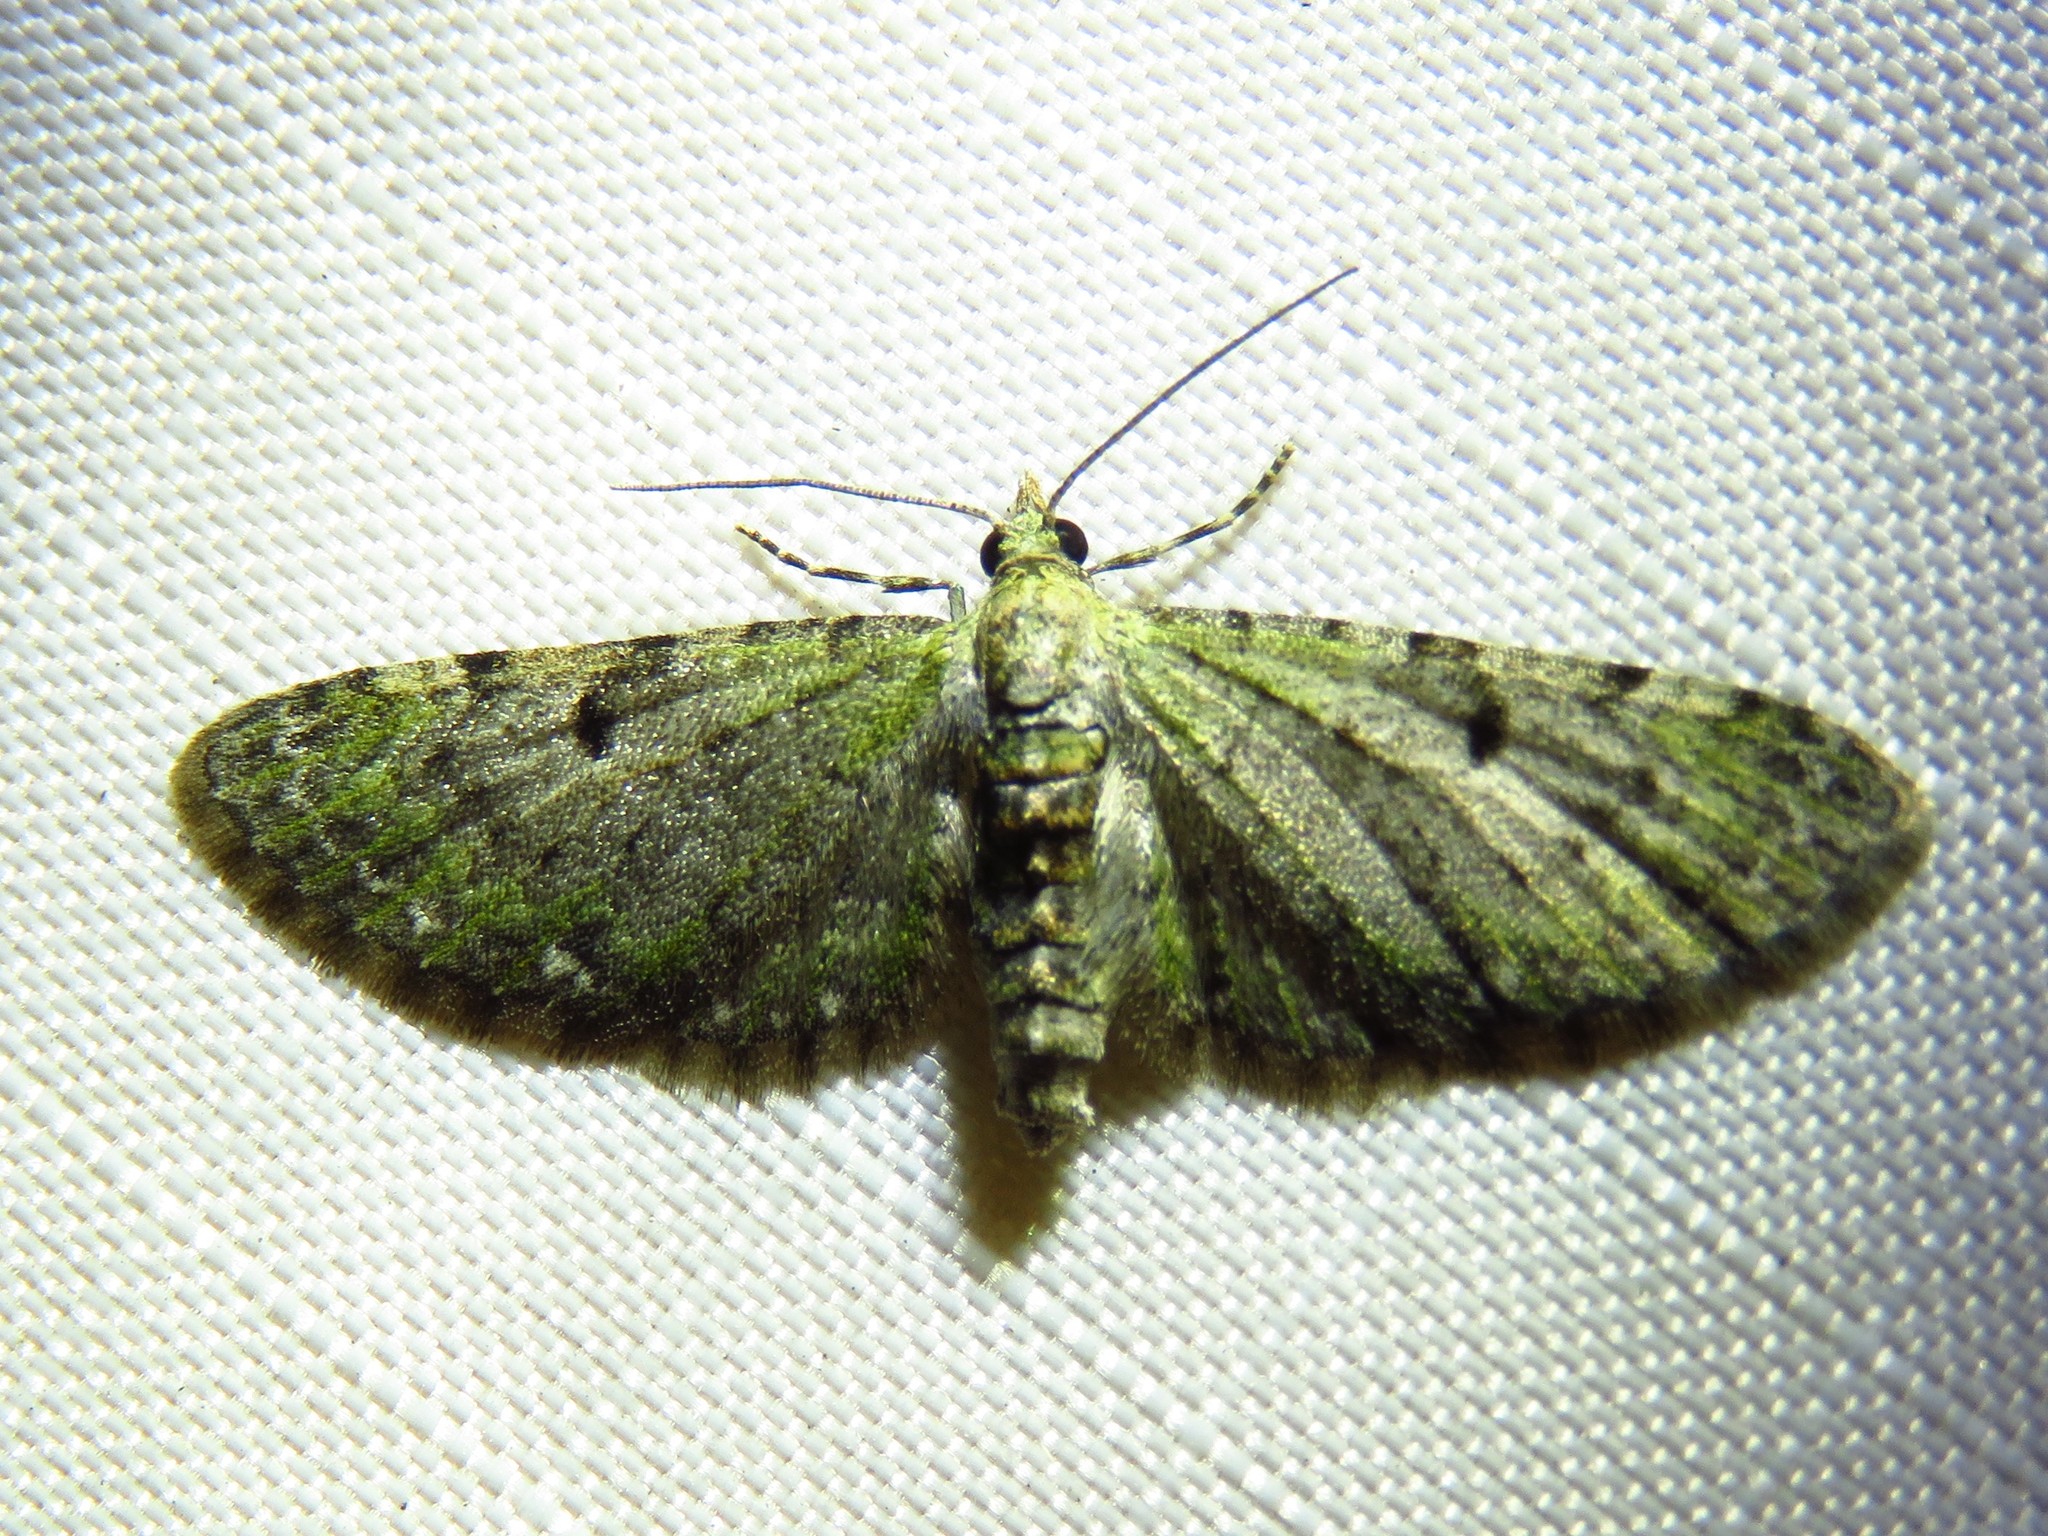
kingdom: Animalia
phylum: Arthropoda
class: Insecta
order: Lepidoptera
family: Geometridae
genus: Eupithecia
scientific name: Eupithecia miserulata
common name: Common eupithecia
